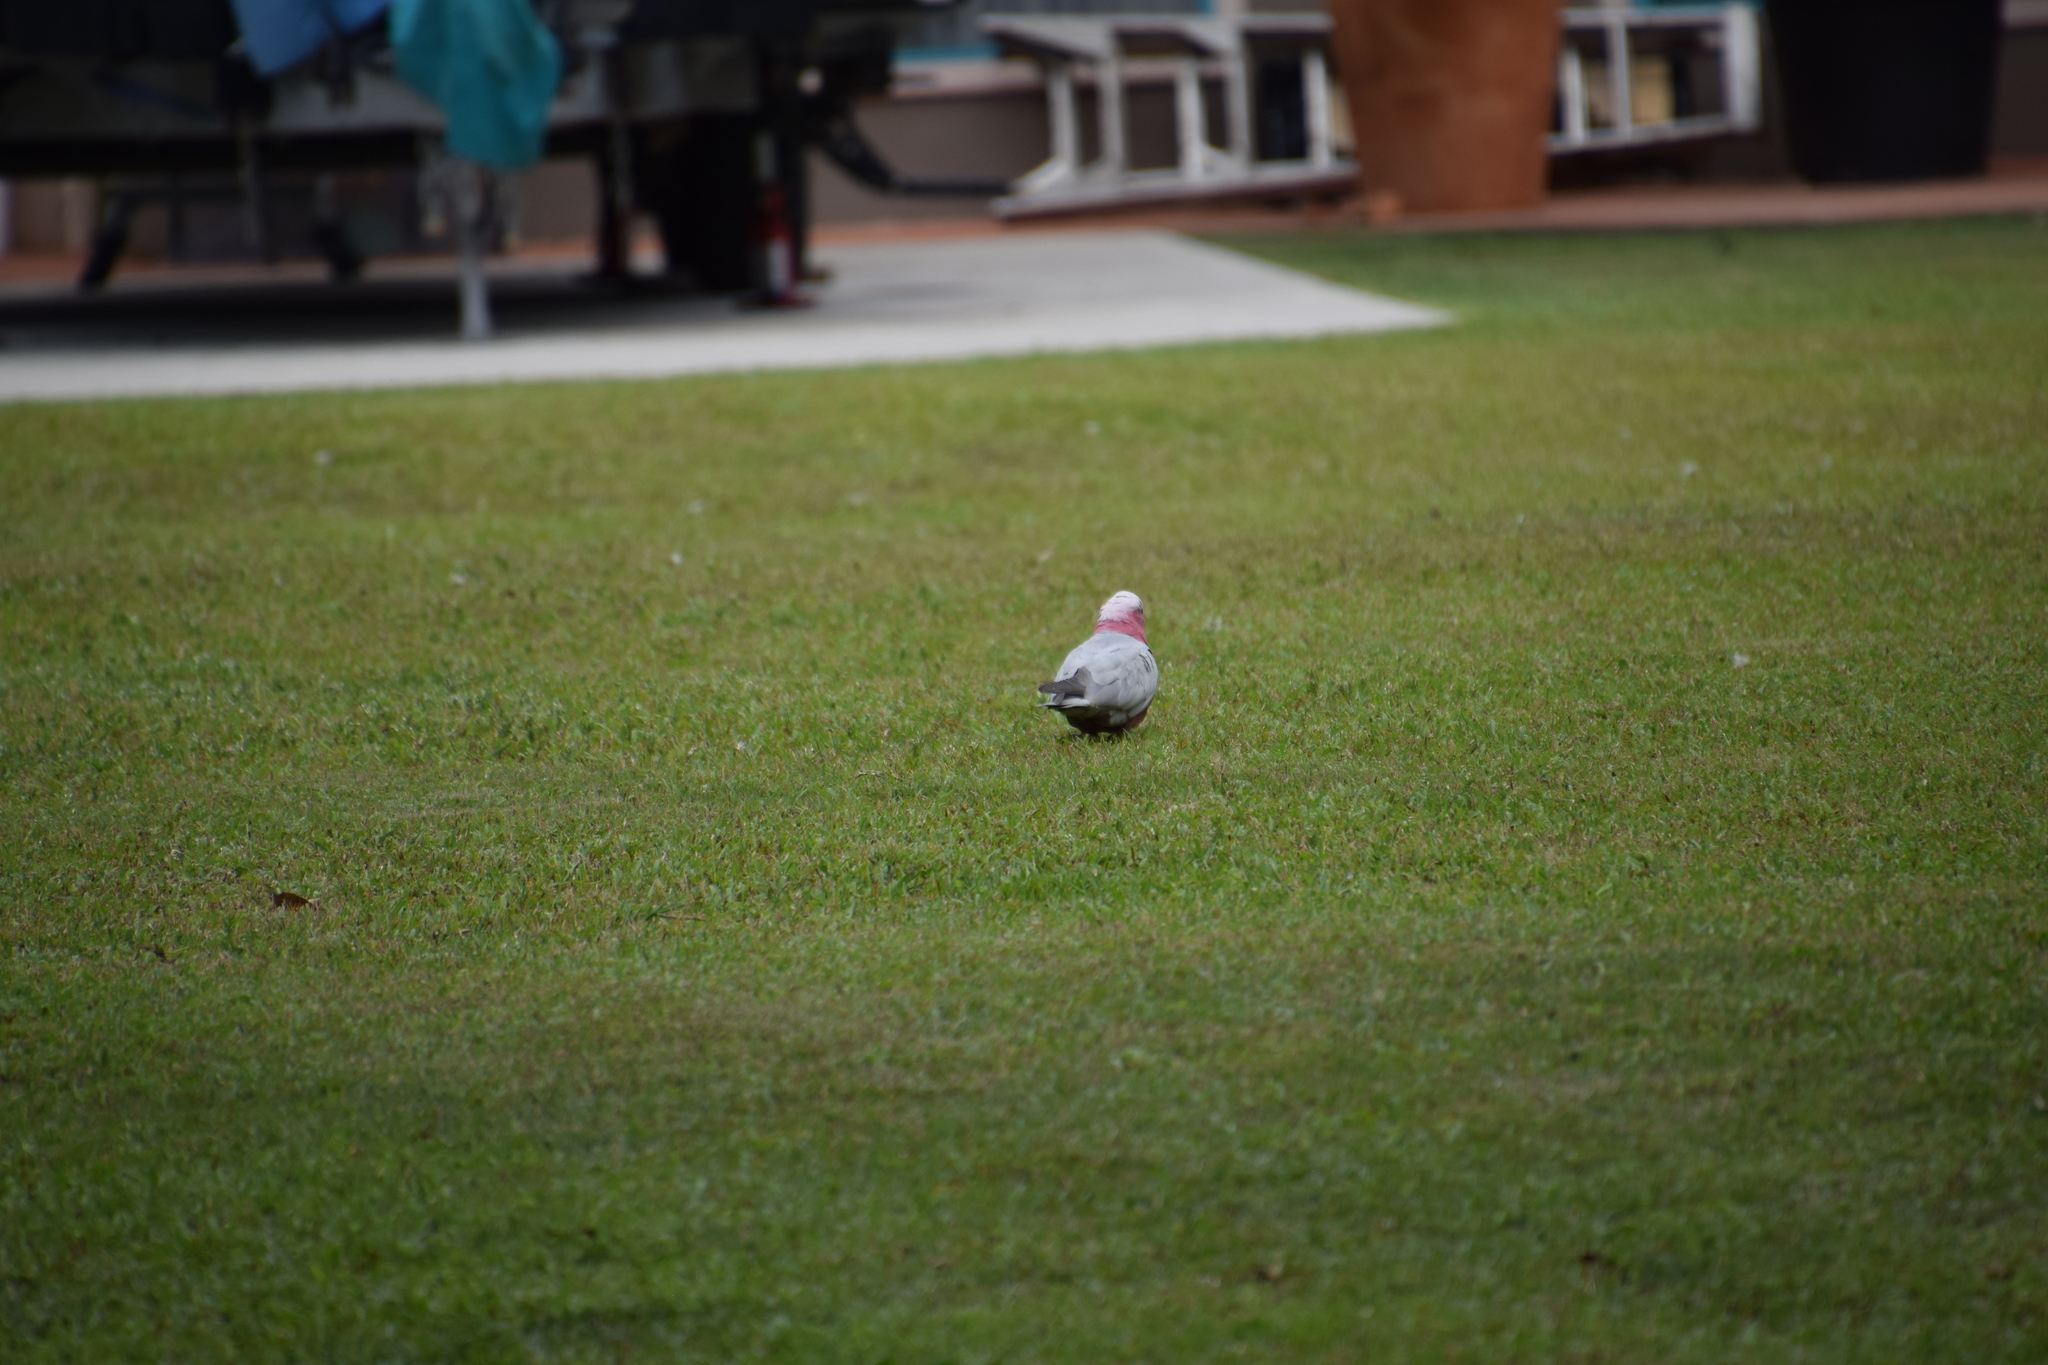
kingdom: Animalia
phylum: Chordata
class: Aves
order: Psittaciformes
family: Psittacidae
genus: Eolophus
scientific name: Eolophus roseicapilla
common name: Galah
